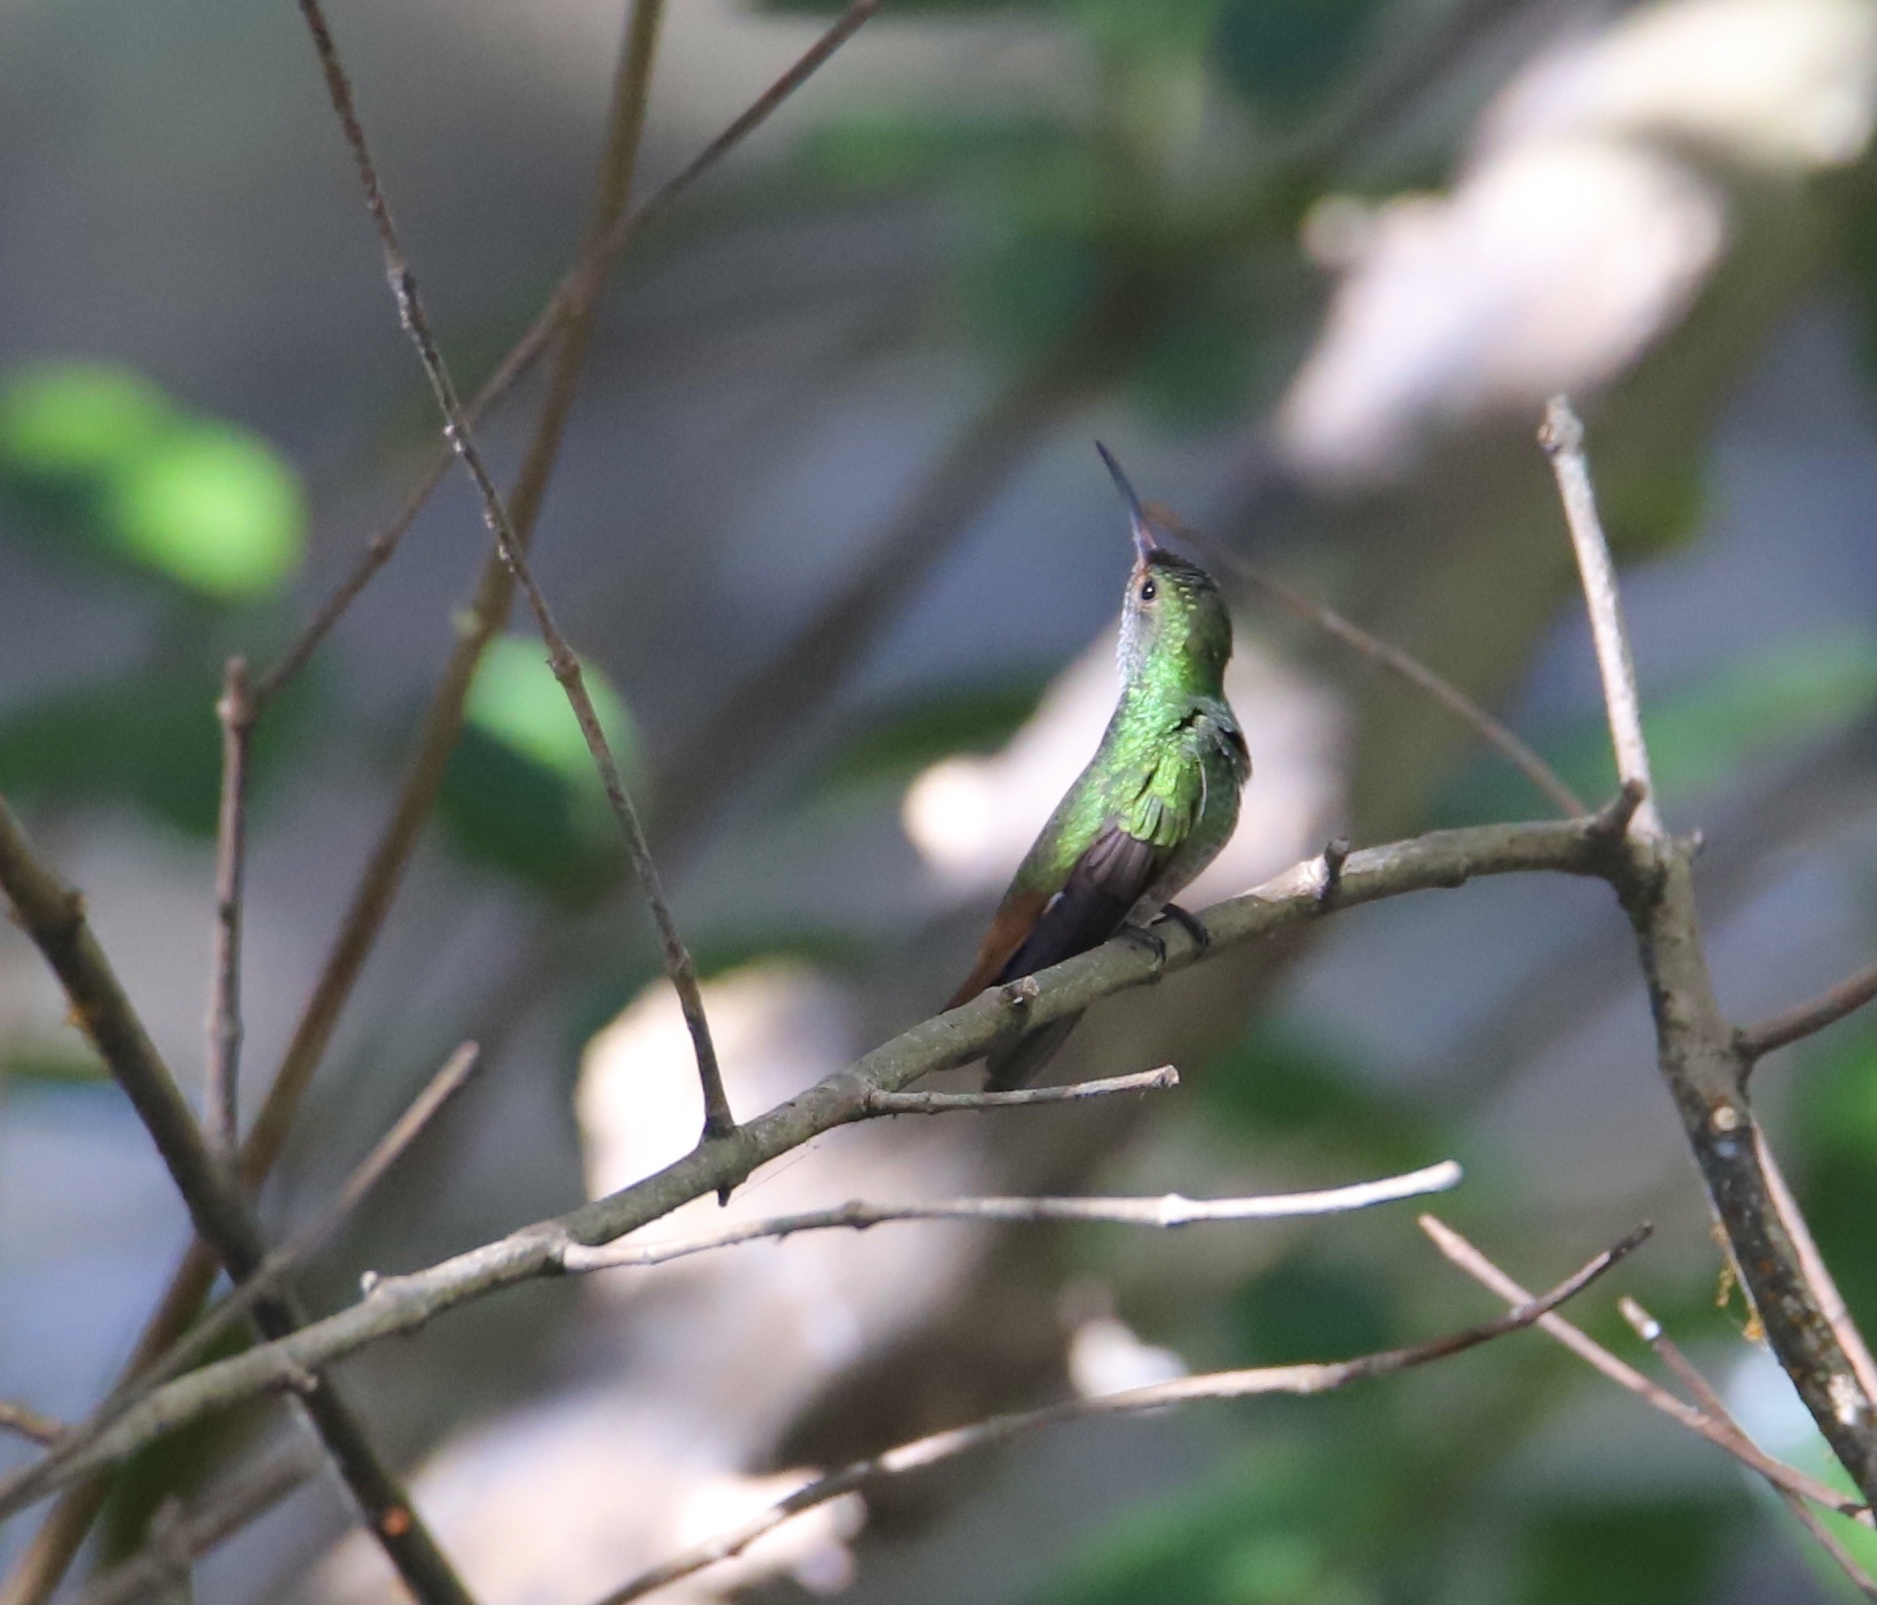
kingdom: Animalia
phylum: Chordata
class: Aves
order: Apodiformes
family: Trochilidae
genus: Amazilia
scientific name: Amazilia tzacatl
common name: Rufous-tailed hummingbird
